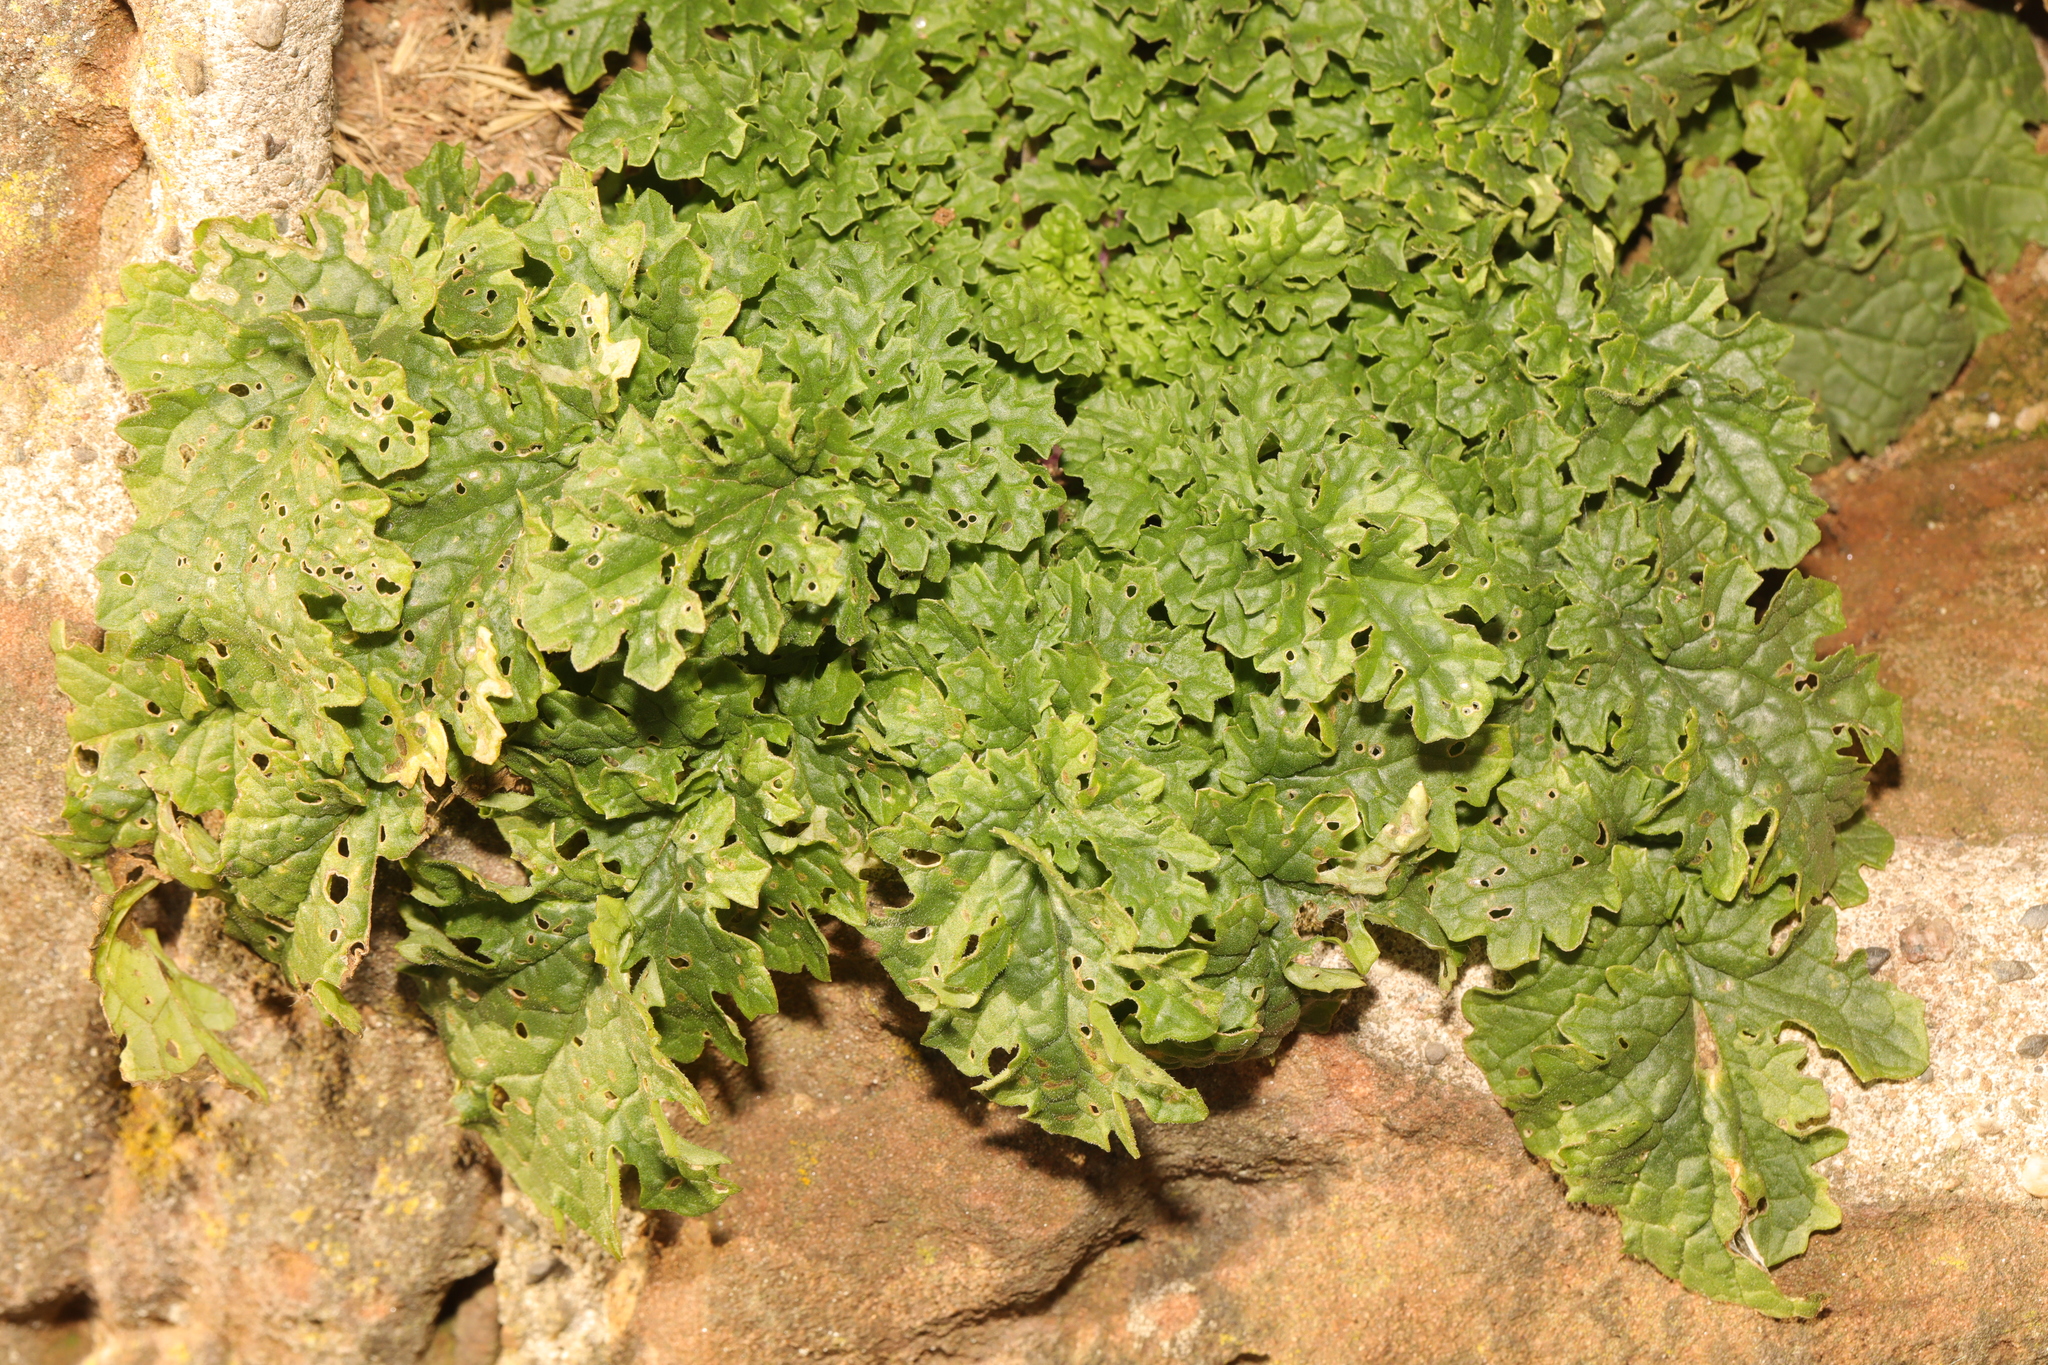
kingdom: Plantae
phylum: Tracheophyta
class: Magnoliopsida
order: Asterales
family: Asteraceae
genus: Jacobaea
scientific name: Jacobaea vulgaris
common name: Stinking willie
